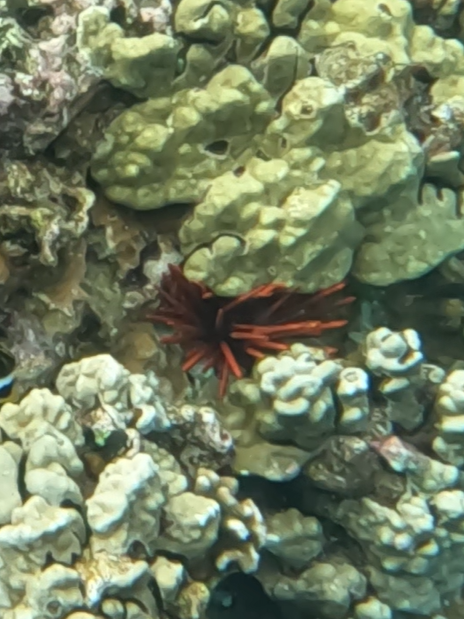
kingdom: Animalia
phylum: Echinodermata
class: Echinoidea
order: Camarodonta
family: Echinometridae
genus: Heterocentrotus
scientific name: Heterocentrotus mamillatus
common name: Slate pencil urchin
